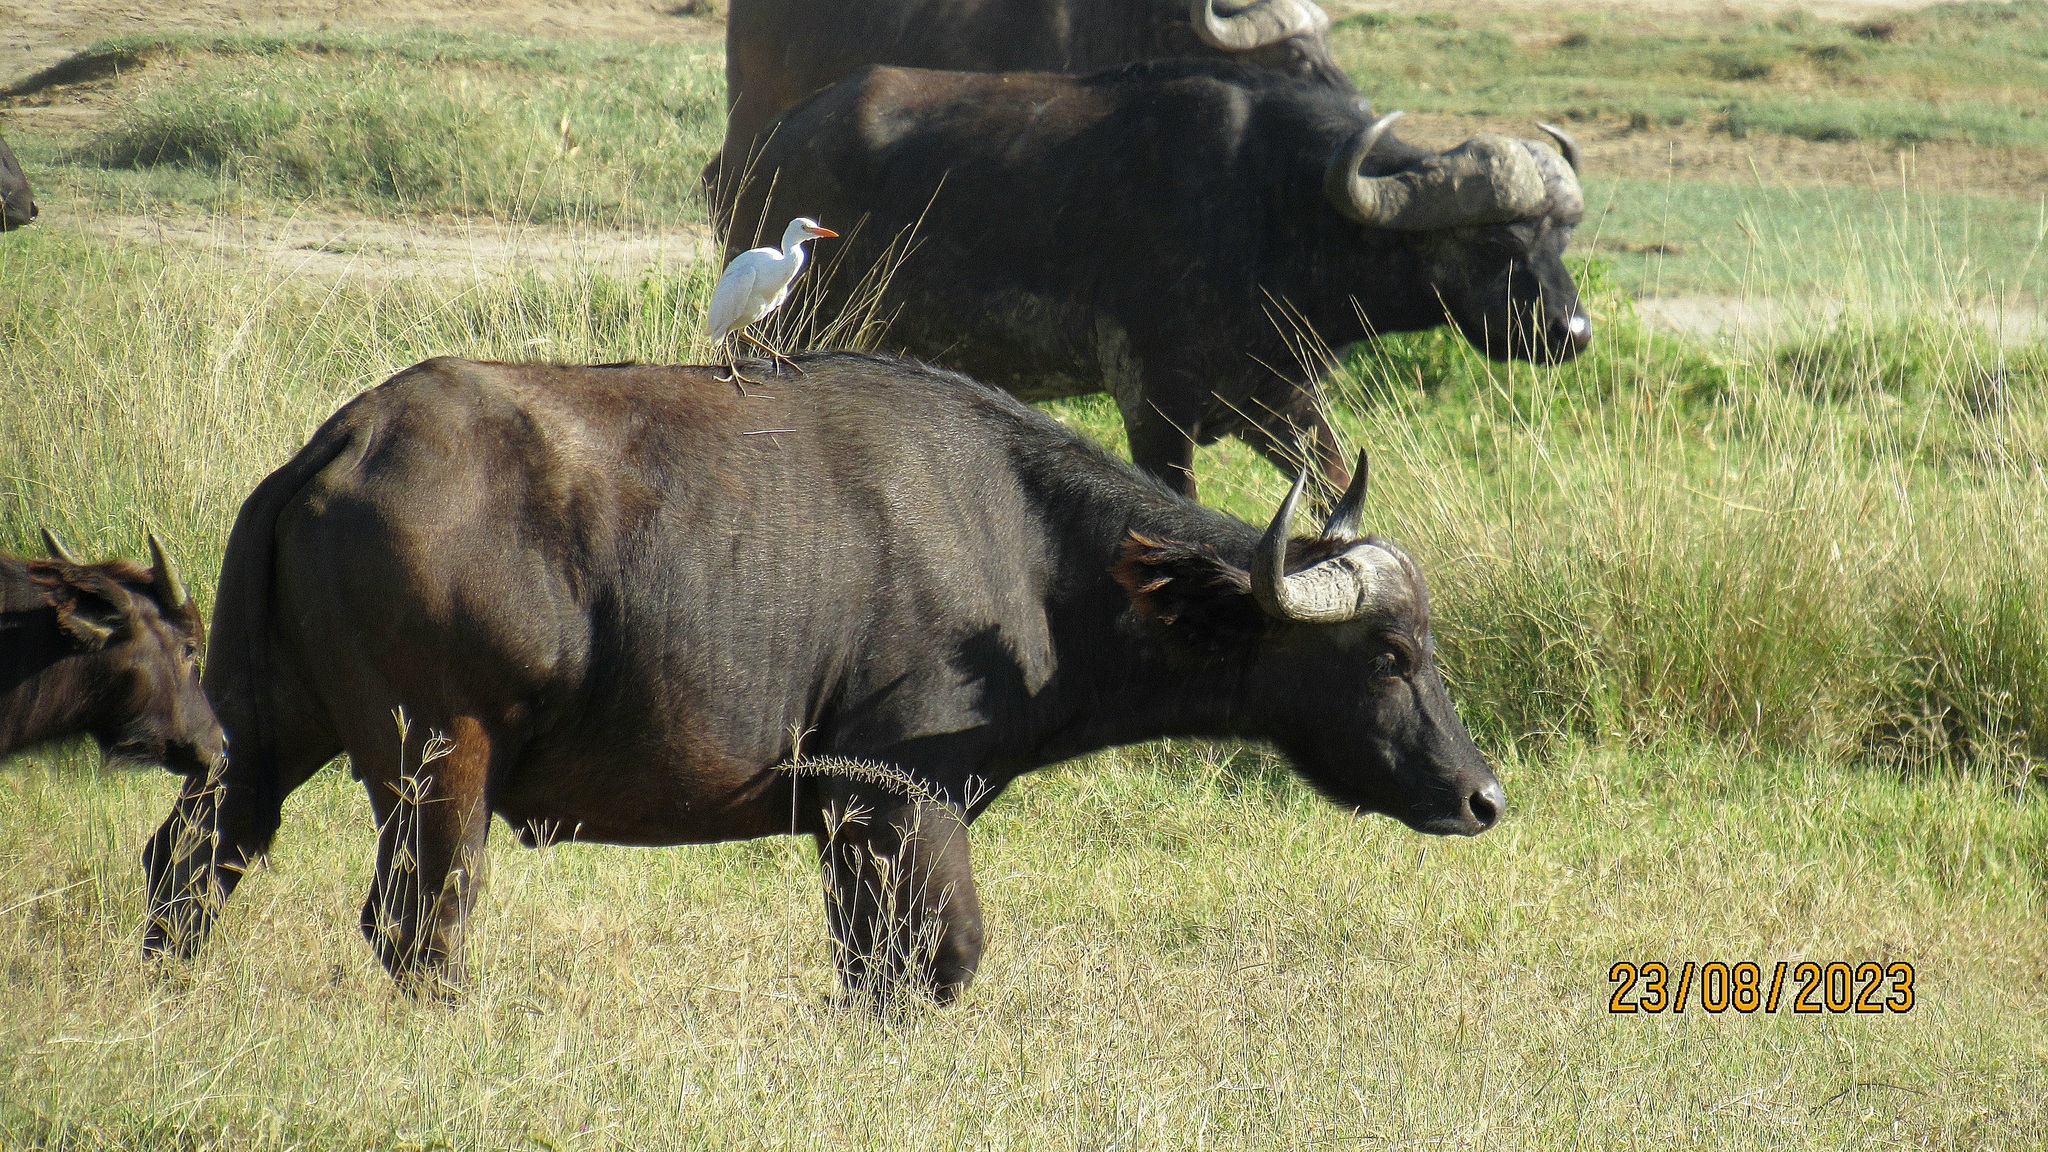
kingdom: Animalia
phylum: Chordata
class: Aves
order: Pelecaniformes
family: Ardeidae
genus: Bubulcus
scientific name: Bubulcus ibis
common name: Cattle egret
